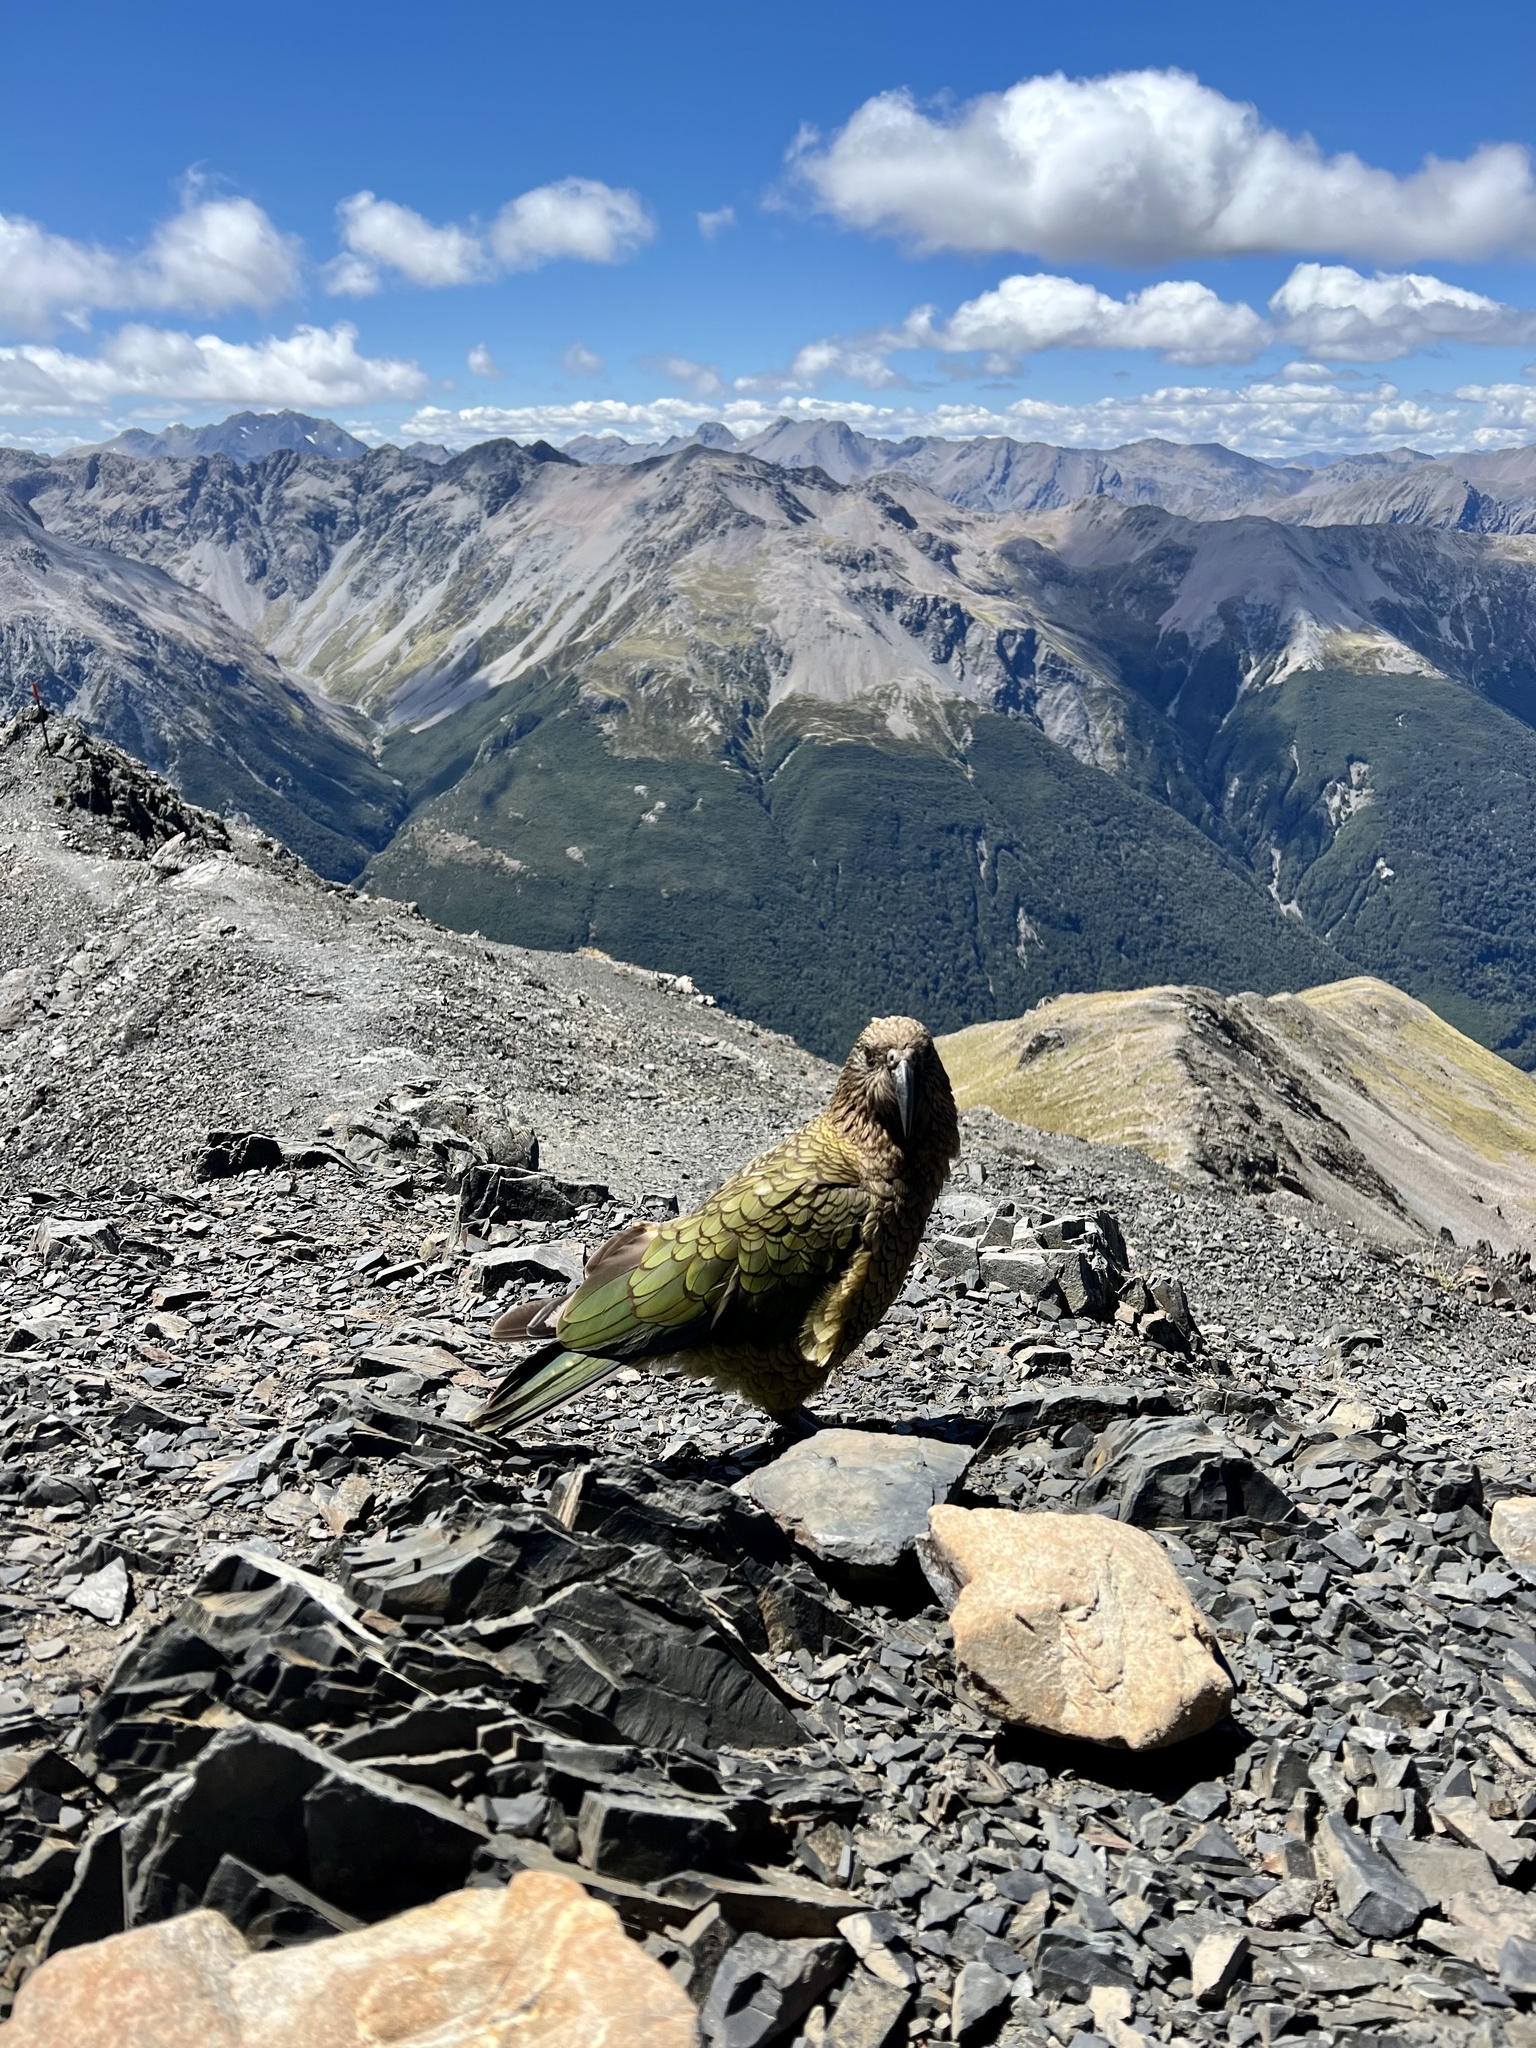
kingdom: Animalia
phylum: Chordata
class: Aves
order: Psittaciformes
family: Psittacidae
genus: Nestor
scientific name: Nestor notabilis
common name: Kea
